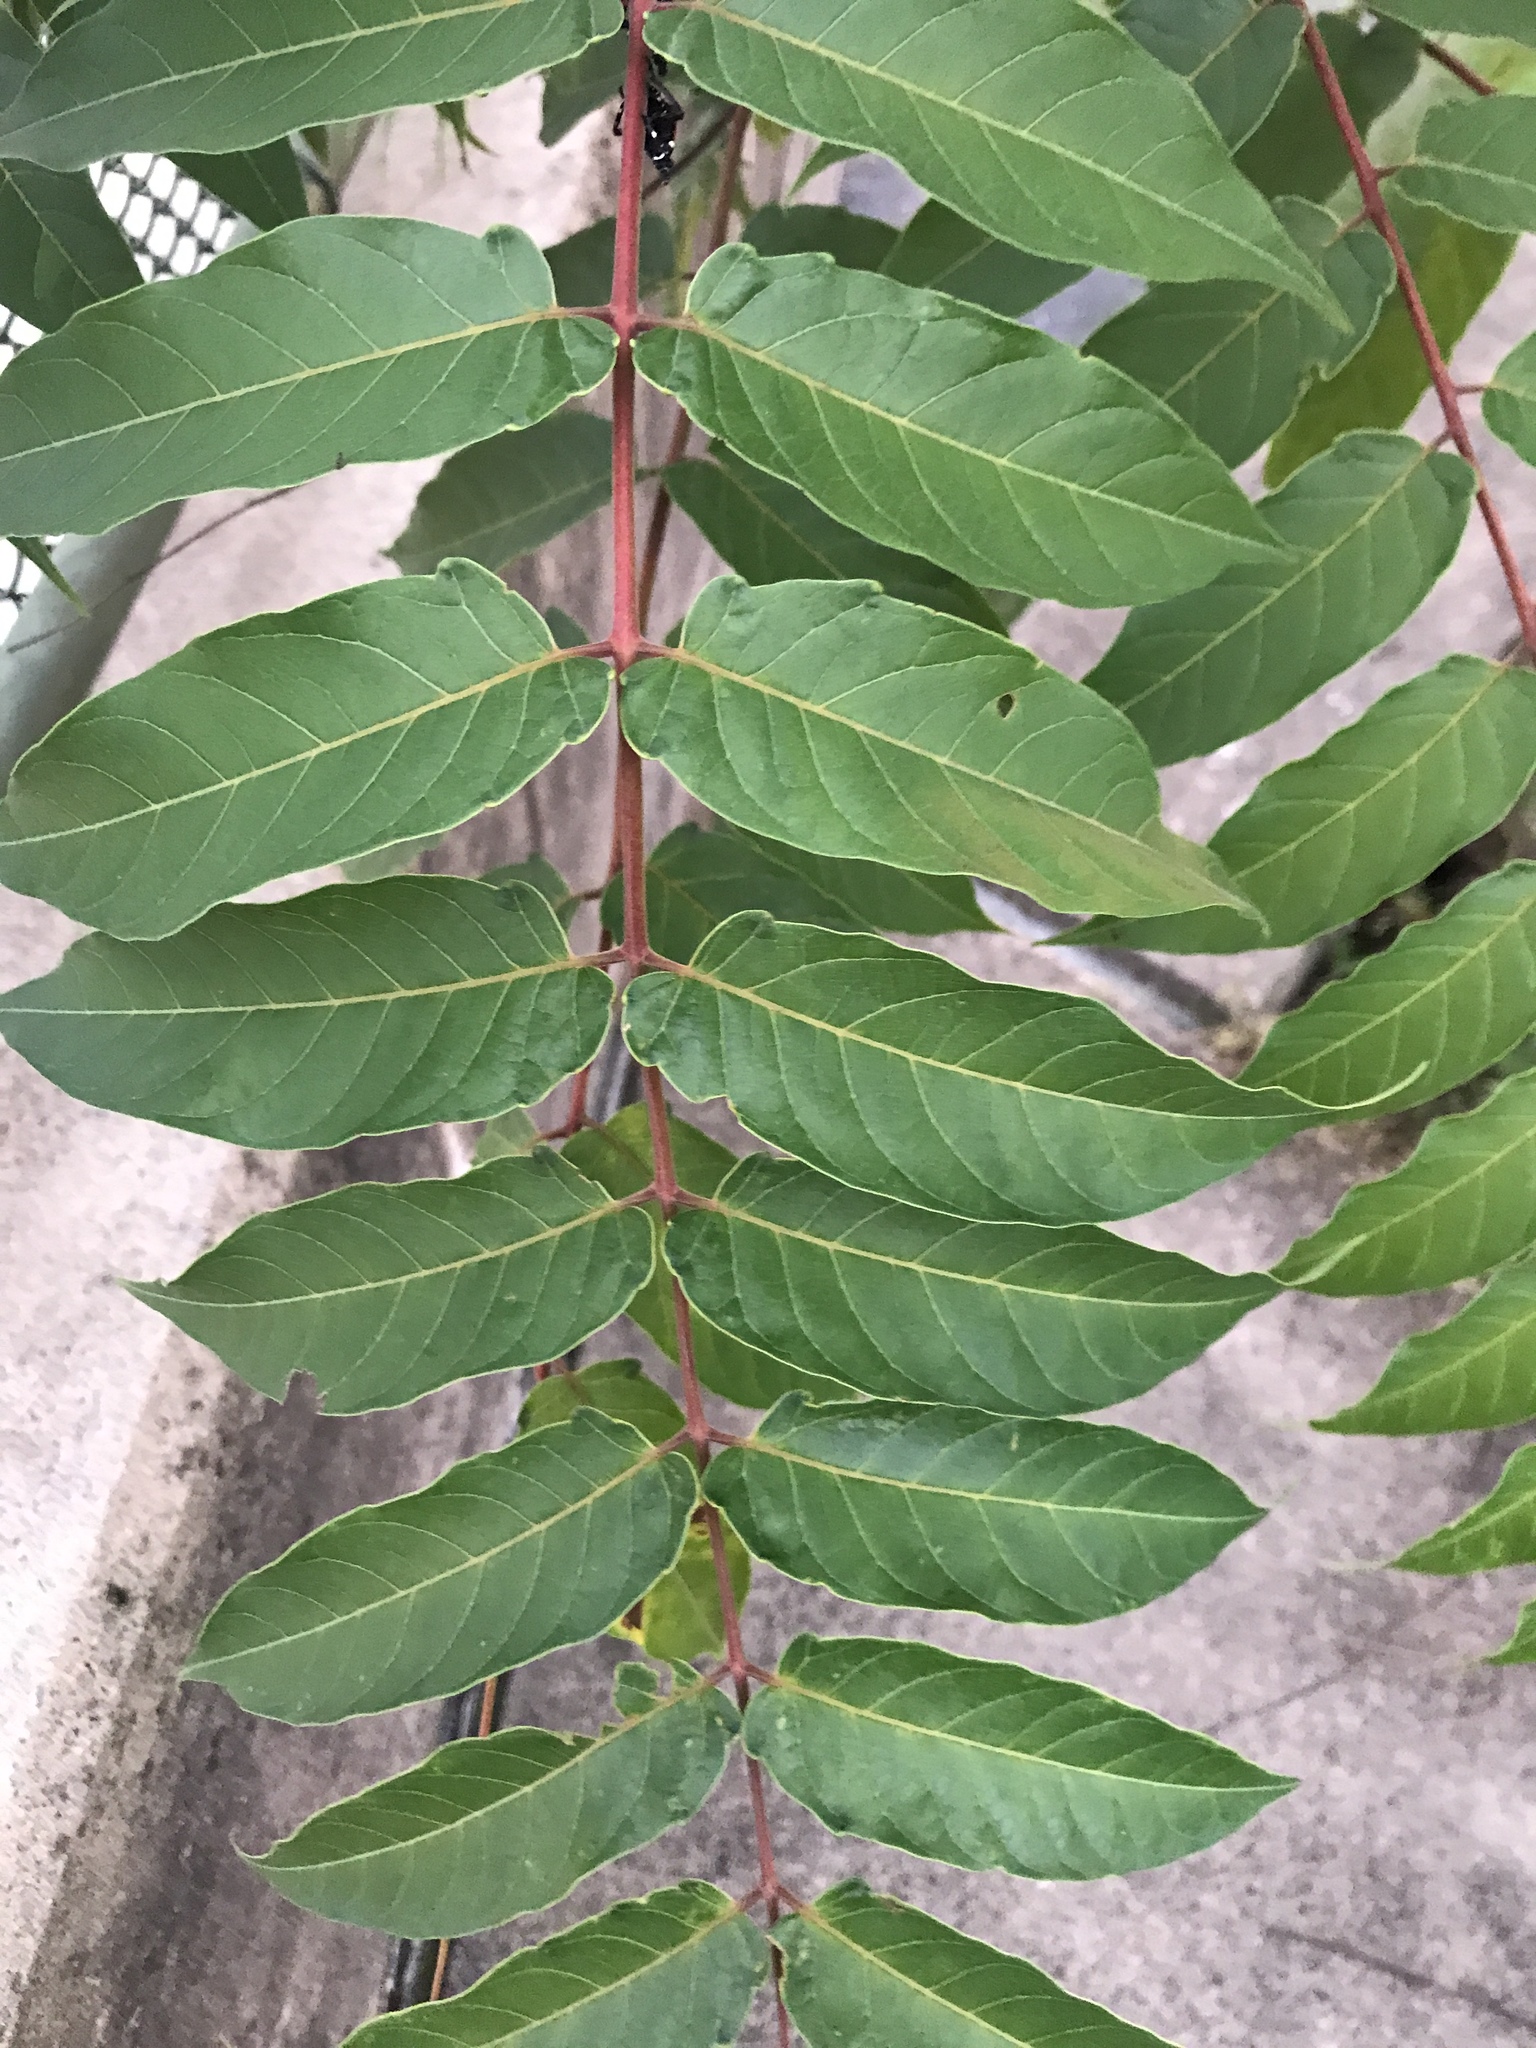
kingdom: Plantae
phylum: Tracheophyta
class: Magnoliopsida
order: Sapindales
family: Simaroubaceae
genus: Ailanthus
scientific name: Ailanthus altissima
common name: Tree-of-heaven
